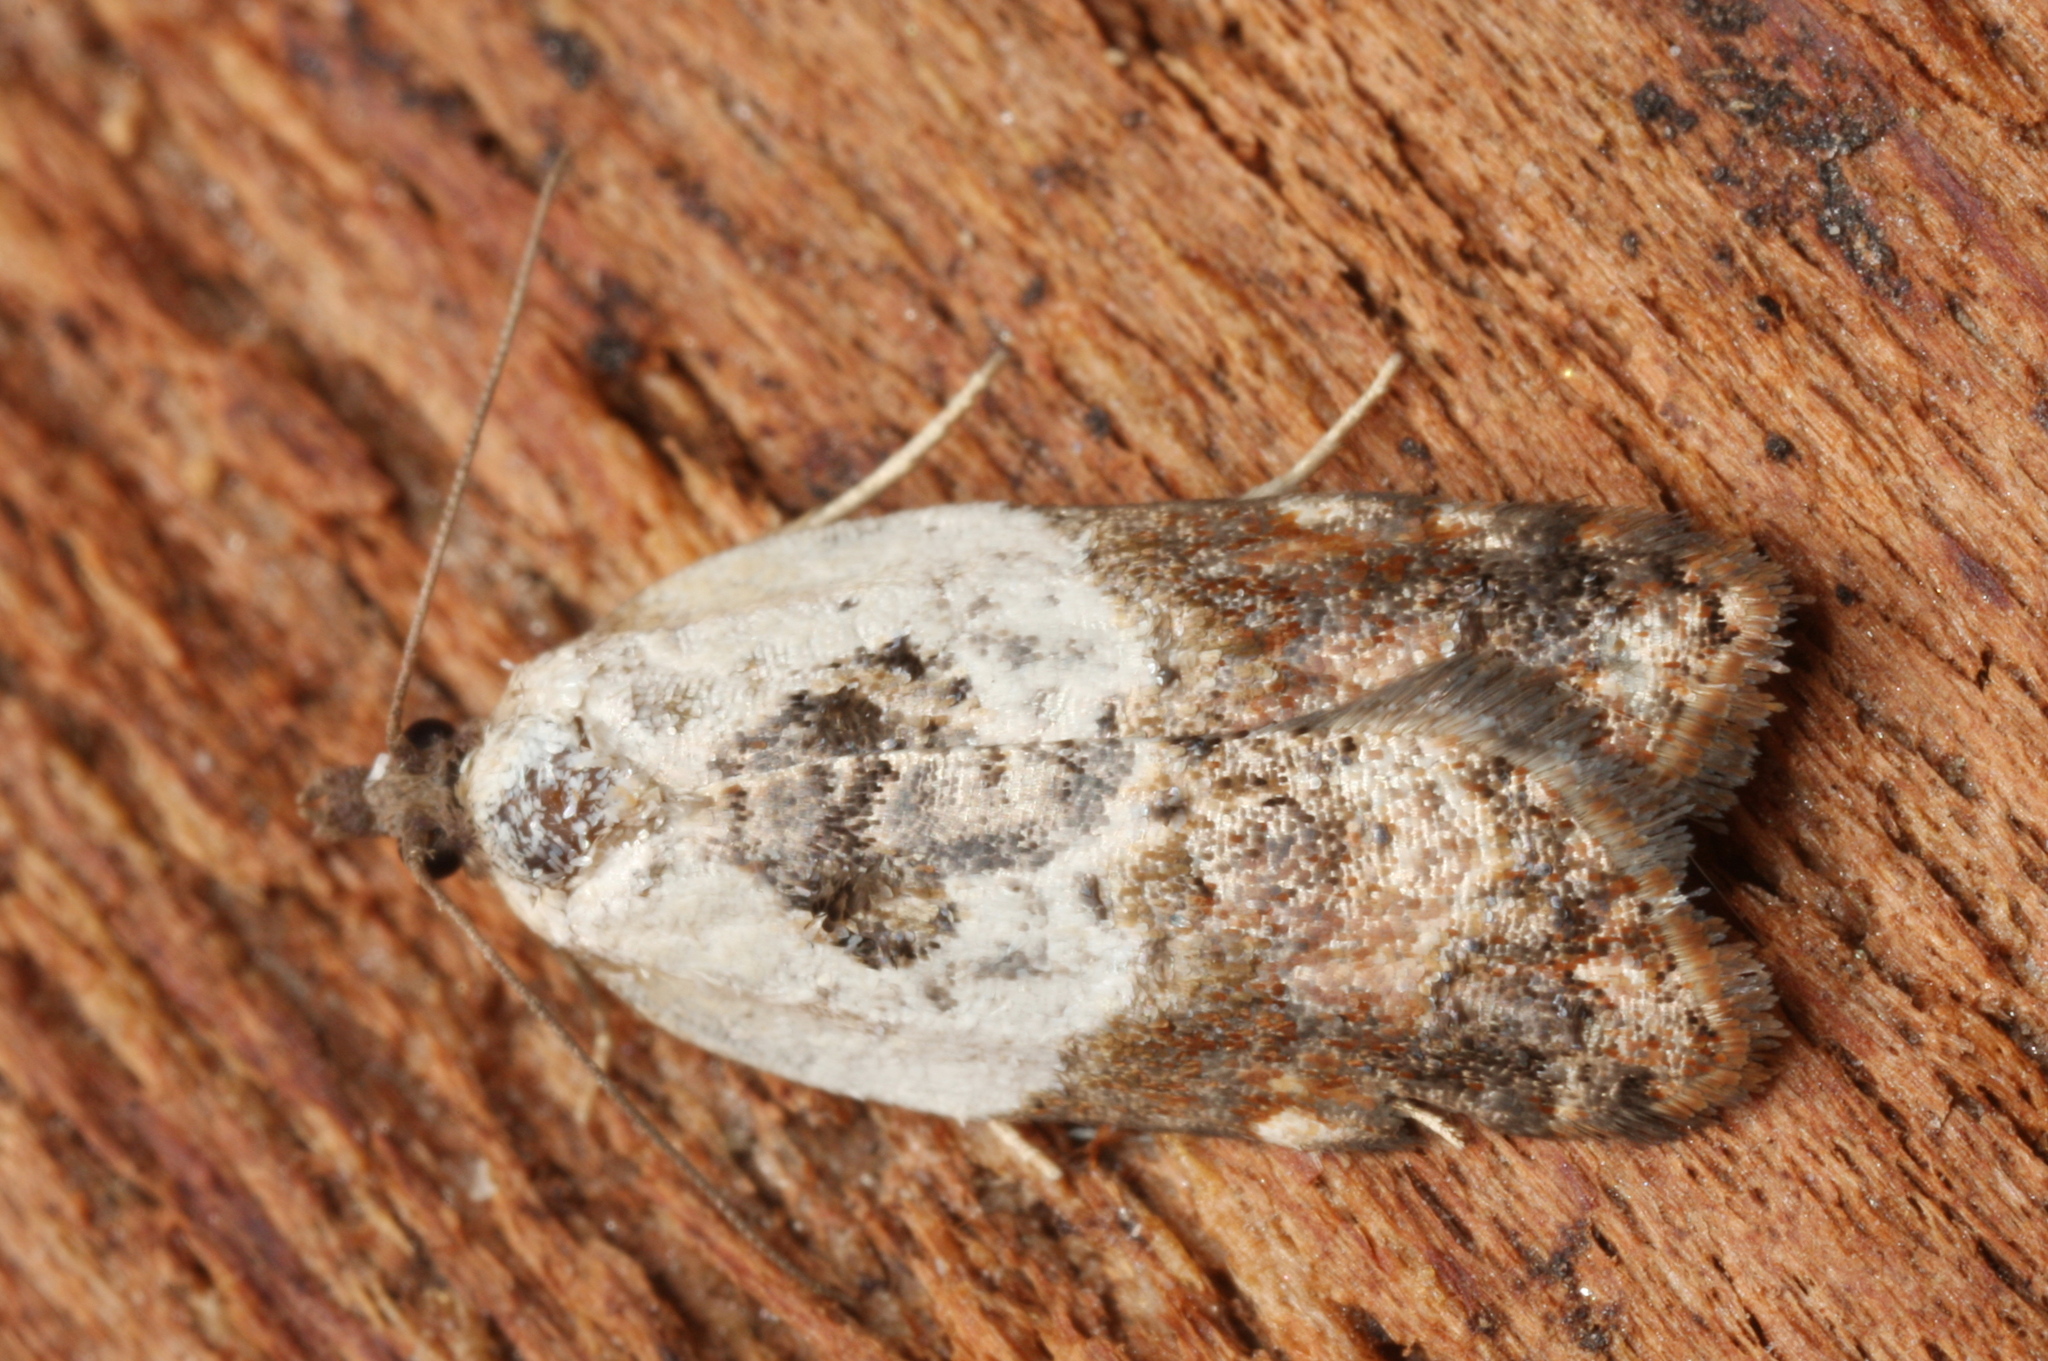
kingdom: Animalia
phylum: Arthropoda
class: Insecta
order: Lepidoptera
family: Tortricidae
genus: Acleris
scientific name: Acleris variegana
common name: Garden rose tortrix
